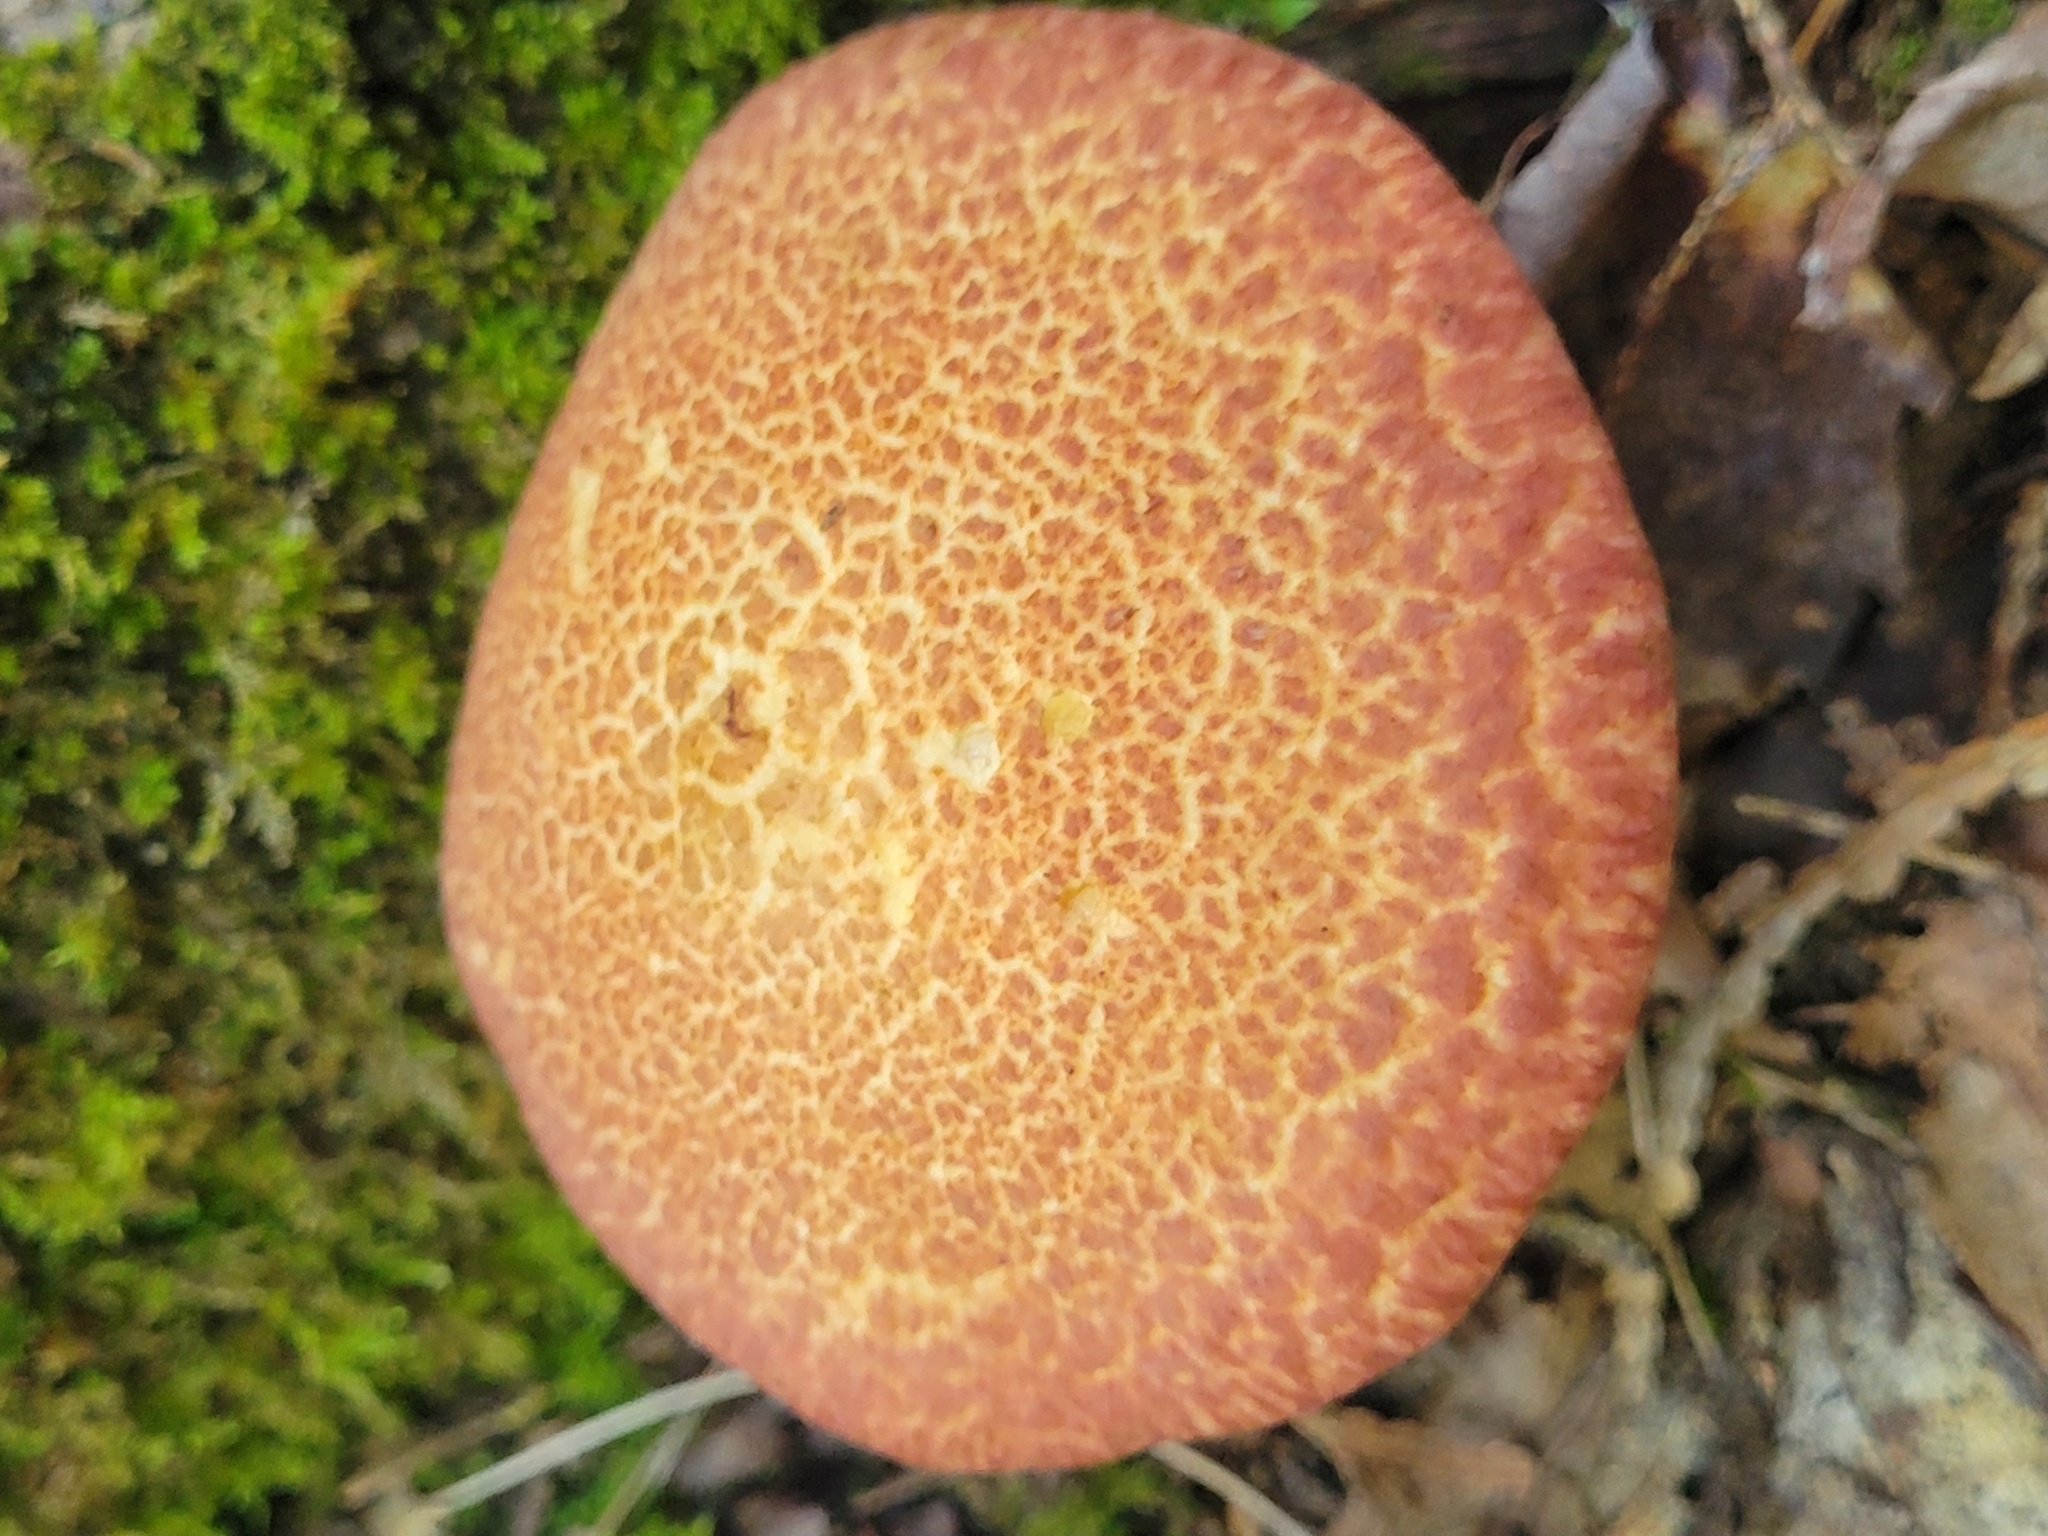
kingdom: Fungi
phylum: Basidiomycota
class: Agaricomycetes
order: Boletales
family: Suillaceae
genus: Suillus
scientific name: Suillus spraguei
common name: Painted suillus
